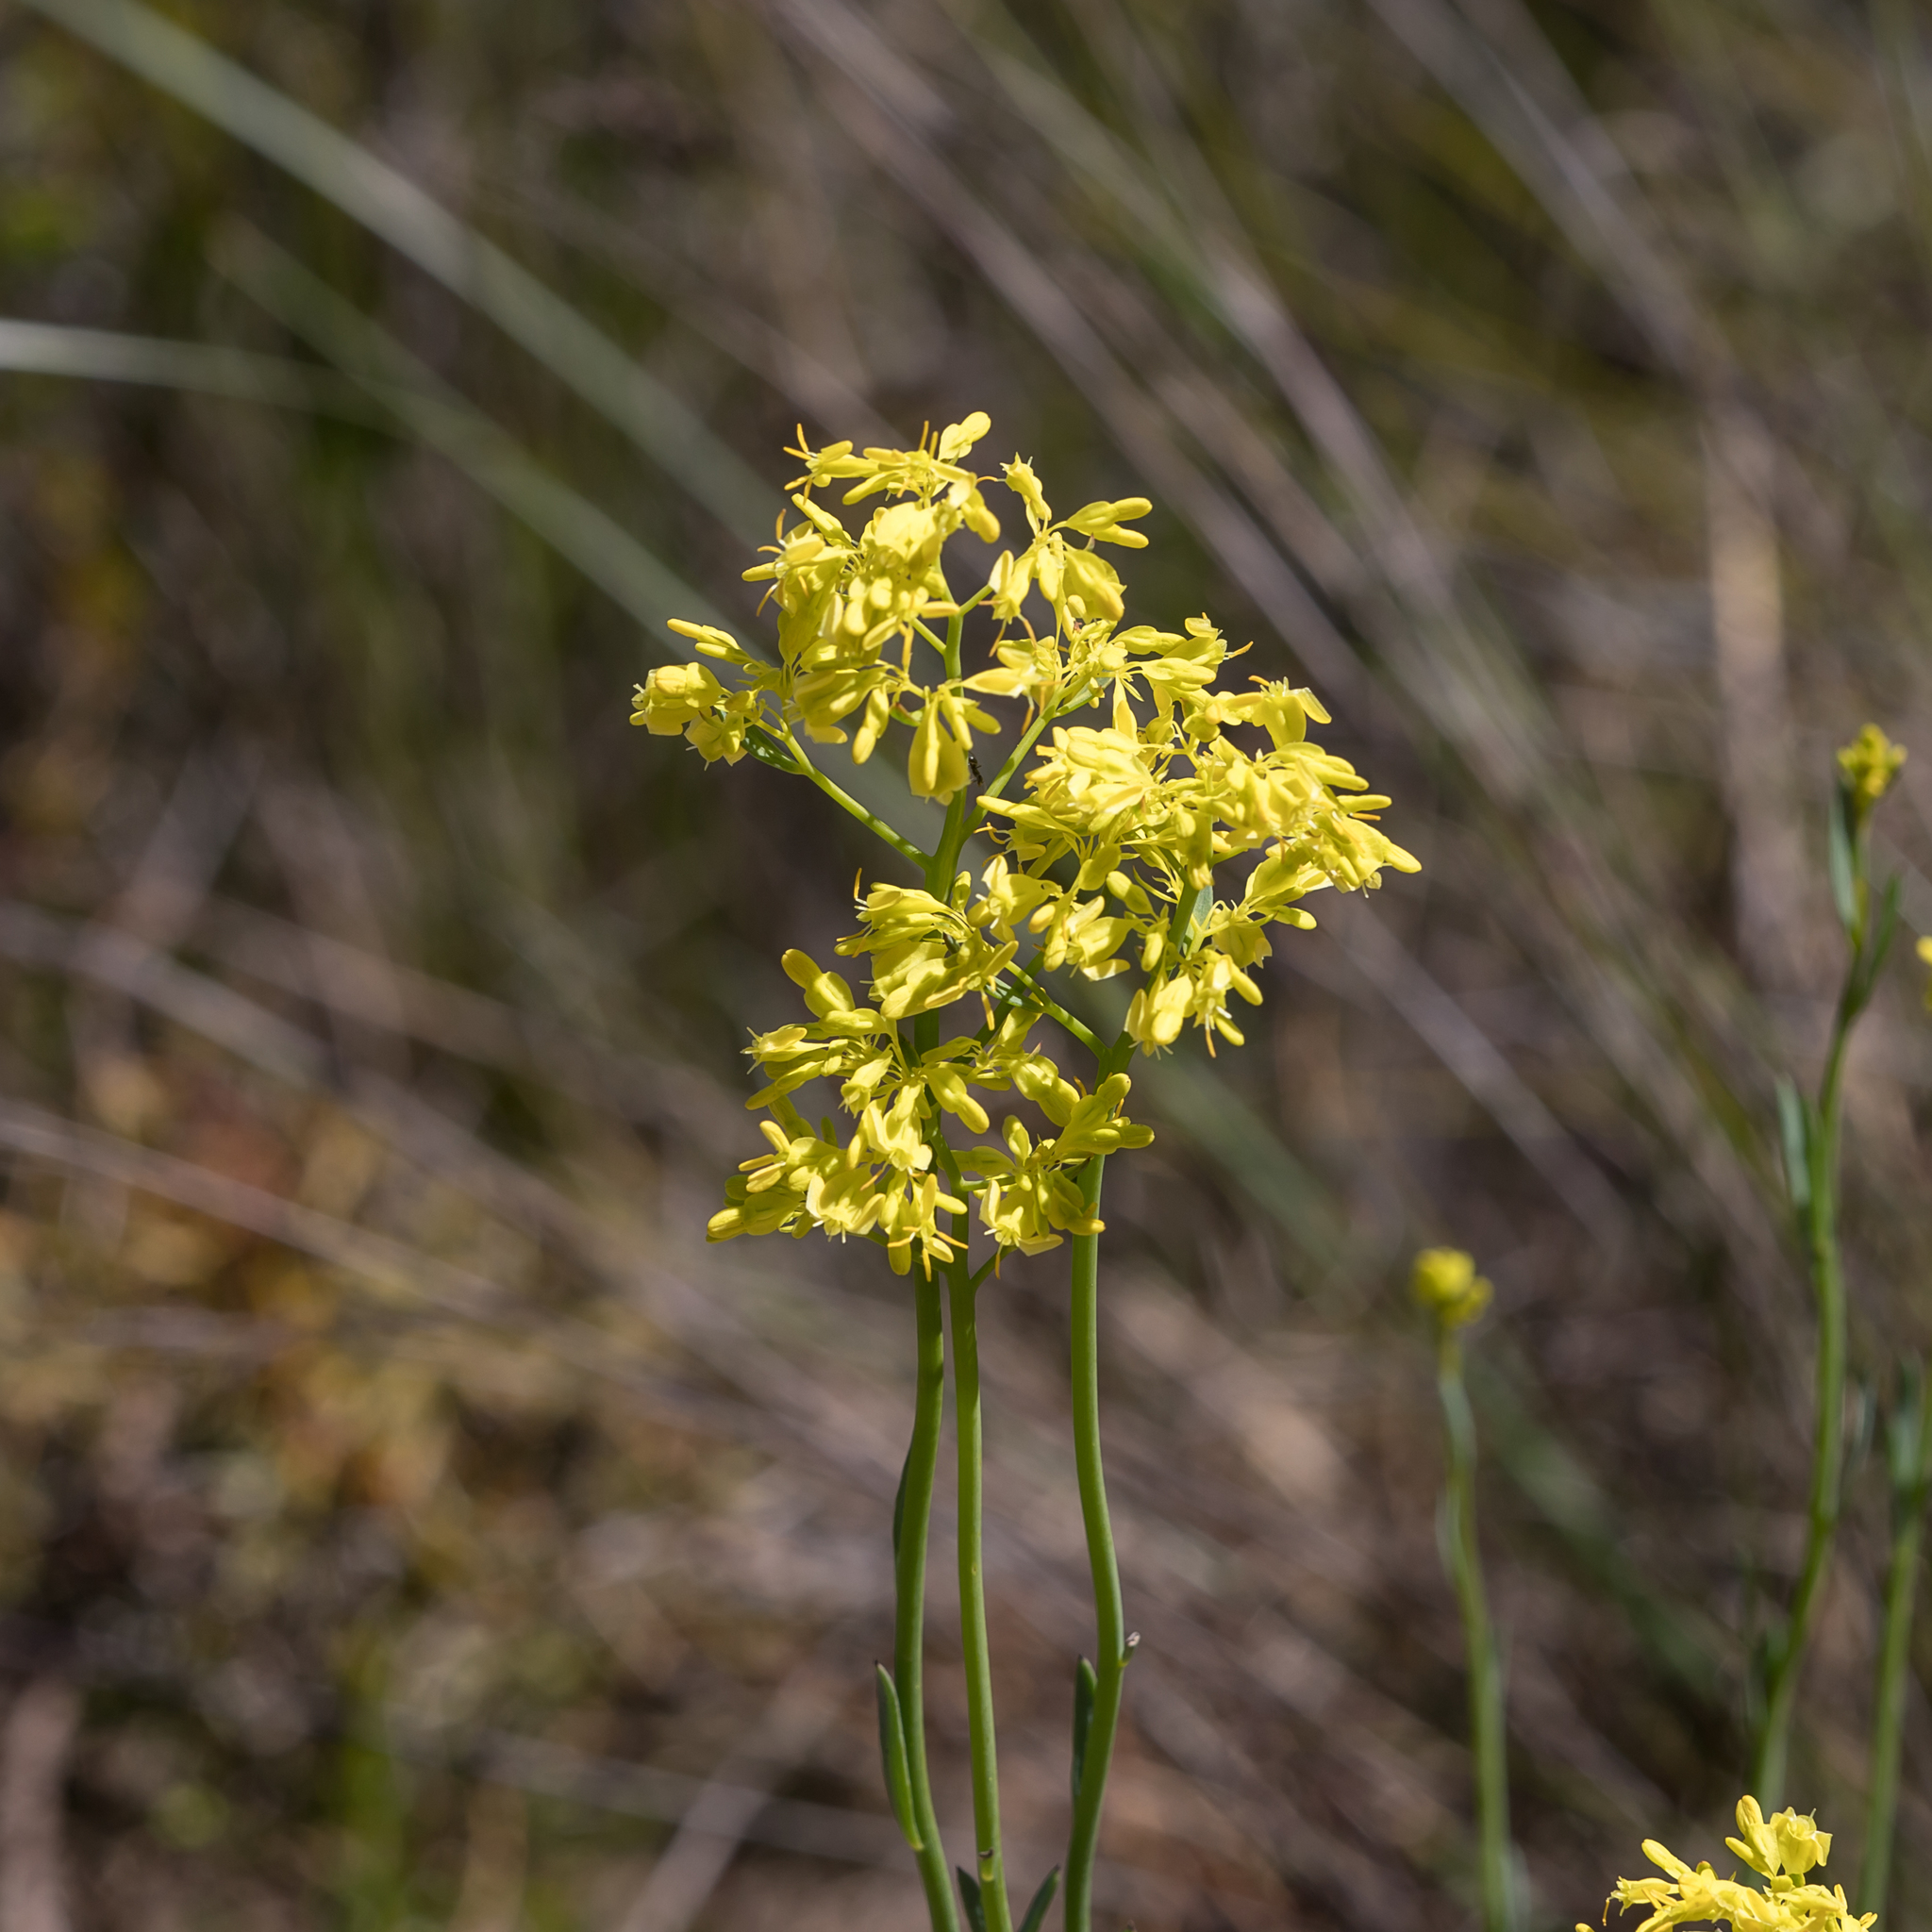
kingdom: Plantae
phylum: Tracheophyta
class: Magnoliopsida
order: Saxifragales
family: Haloragaceae
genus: Glischrocaryon
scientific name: Glischrocaryon behrii
